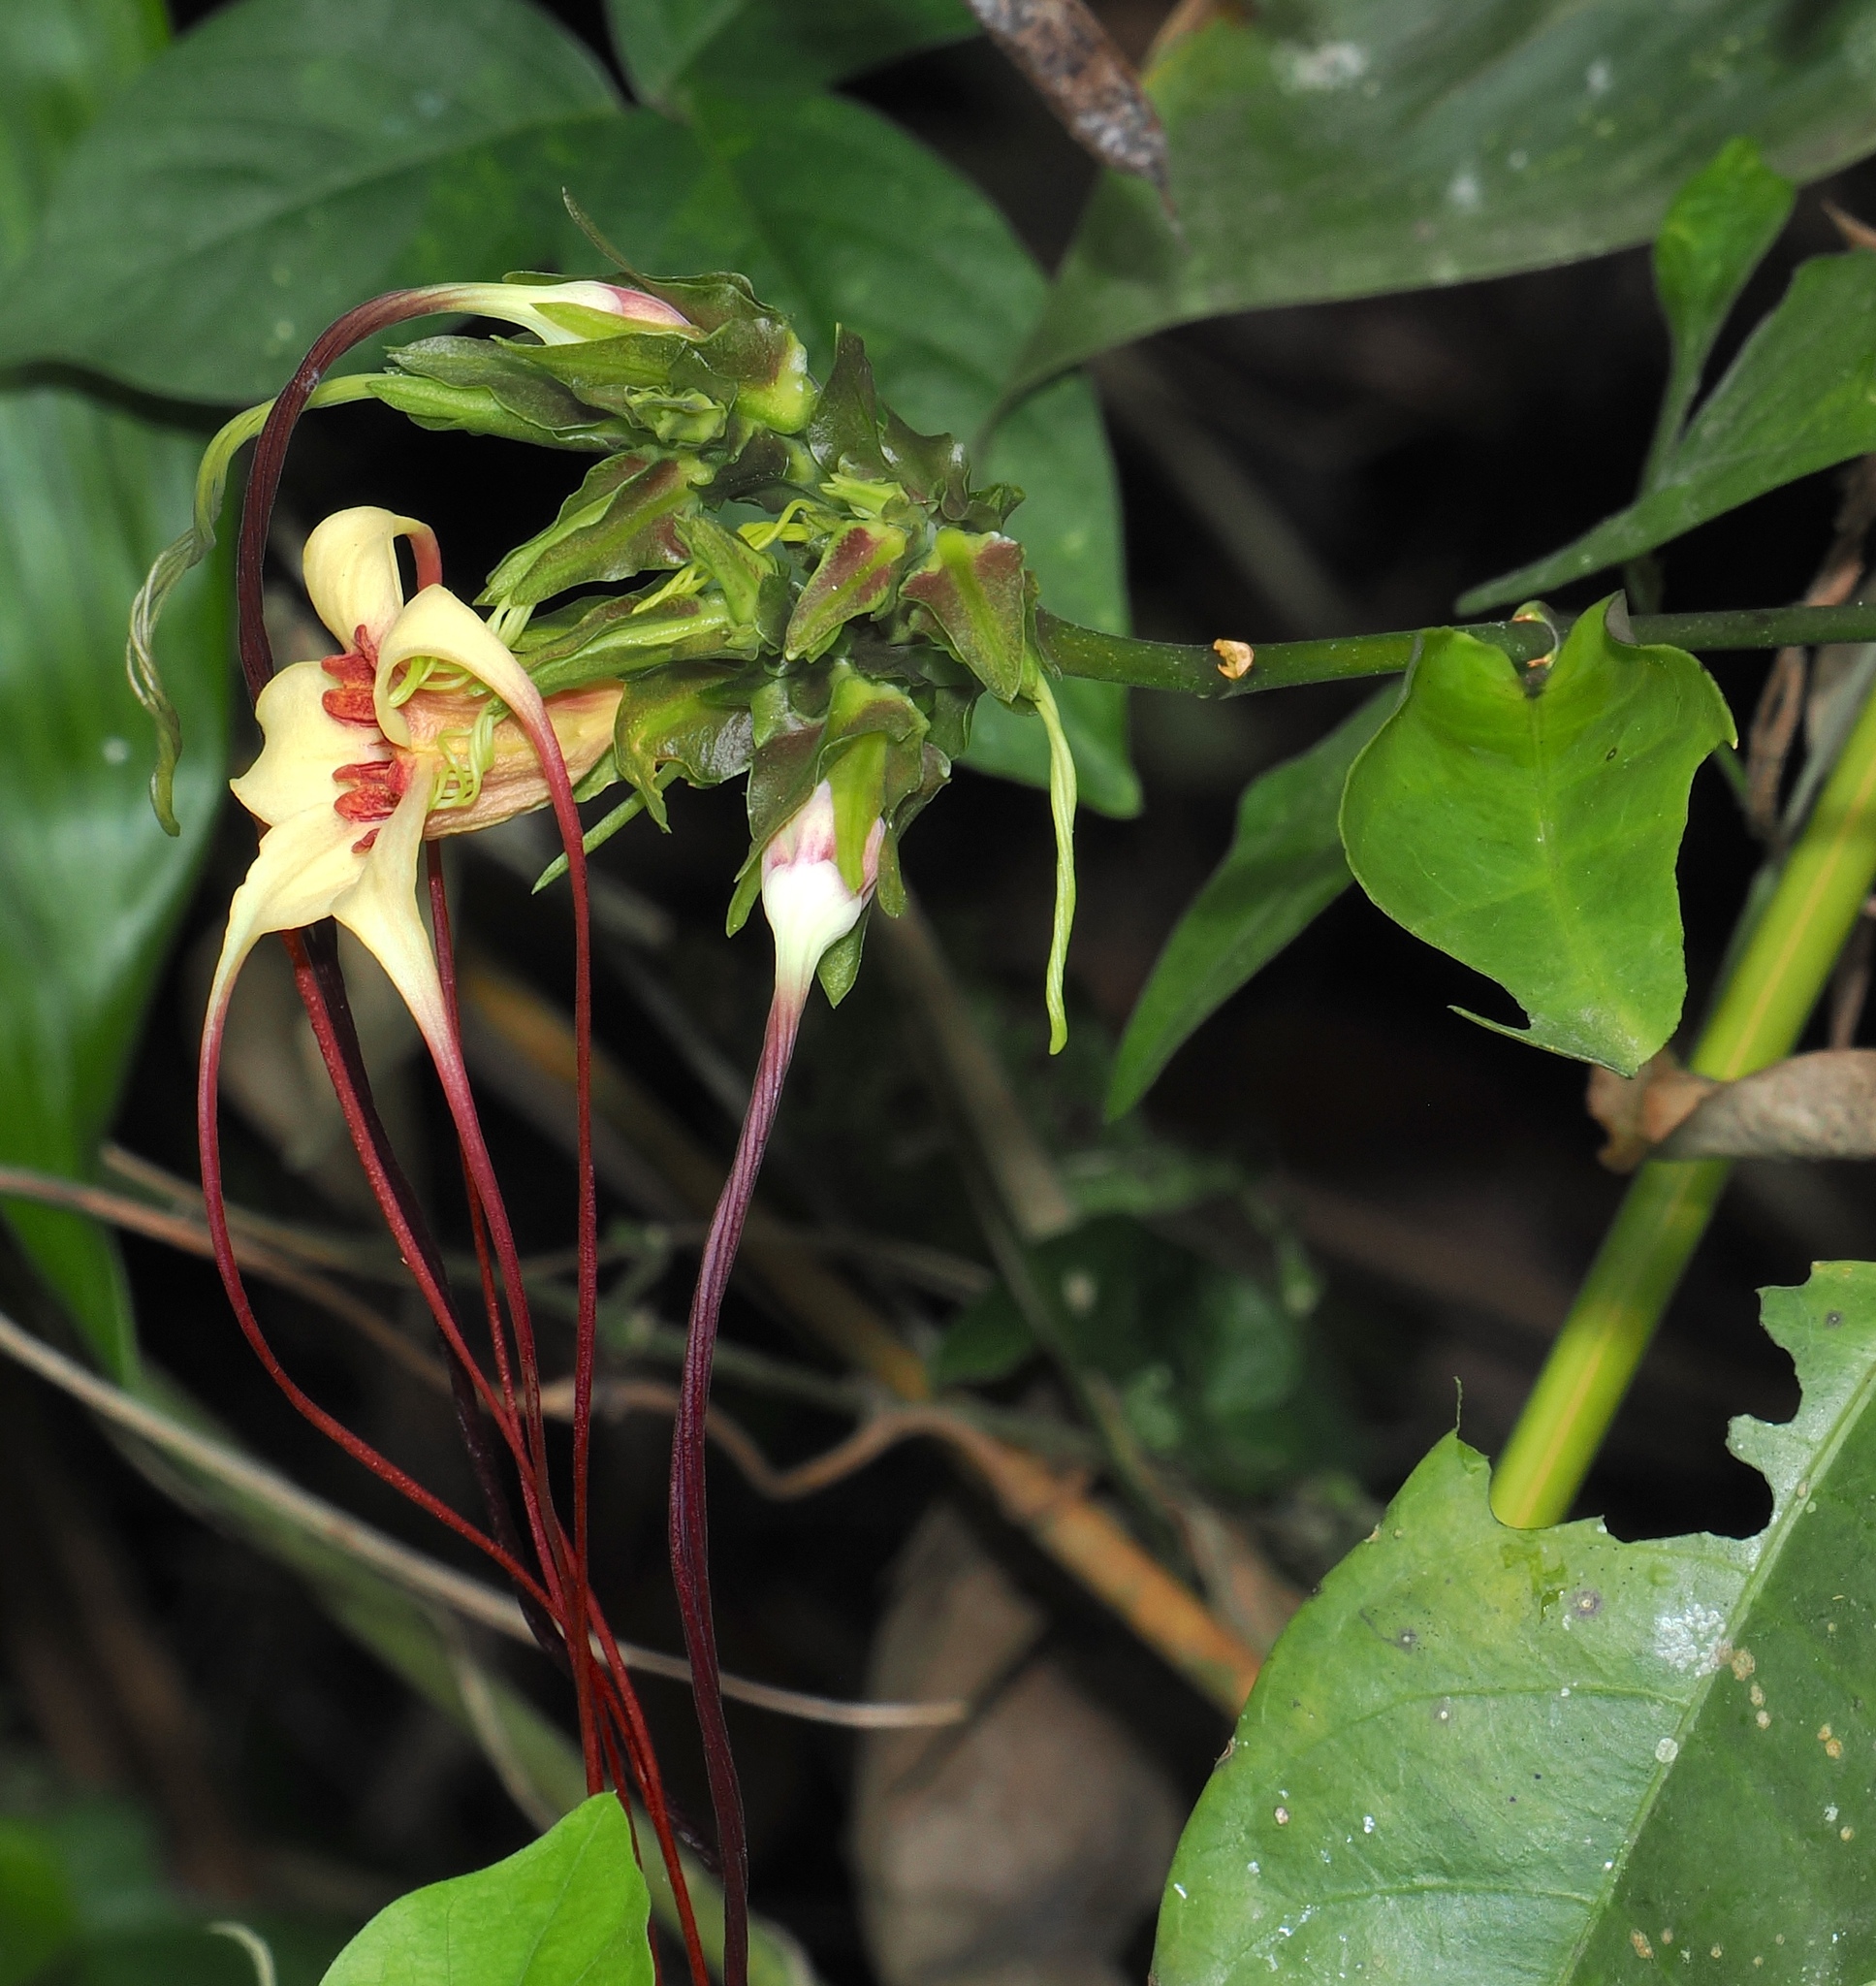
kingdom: Plantae
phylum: Tracheophyta
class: Magnoliopsida
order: Gentianales
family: Apocynaceae
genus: Strophanthus
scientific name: Strophanthus preussii
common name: Medisa-flower
